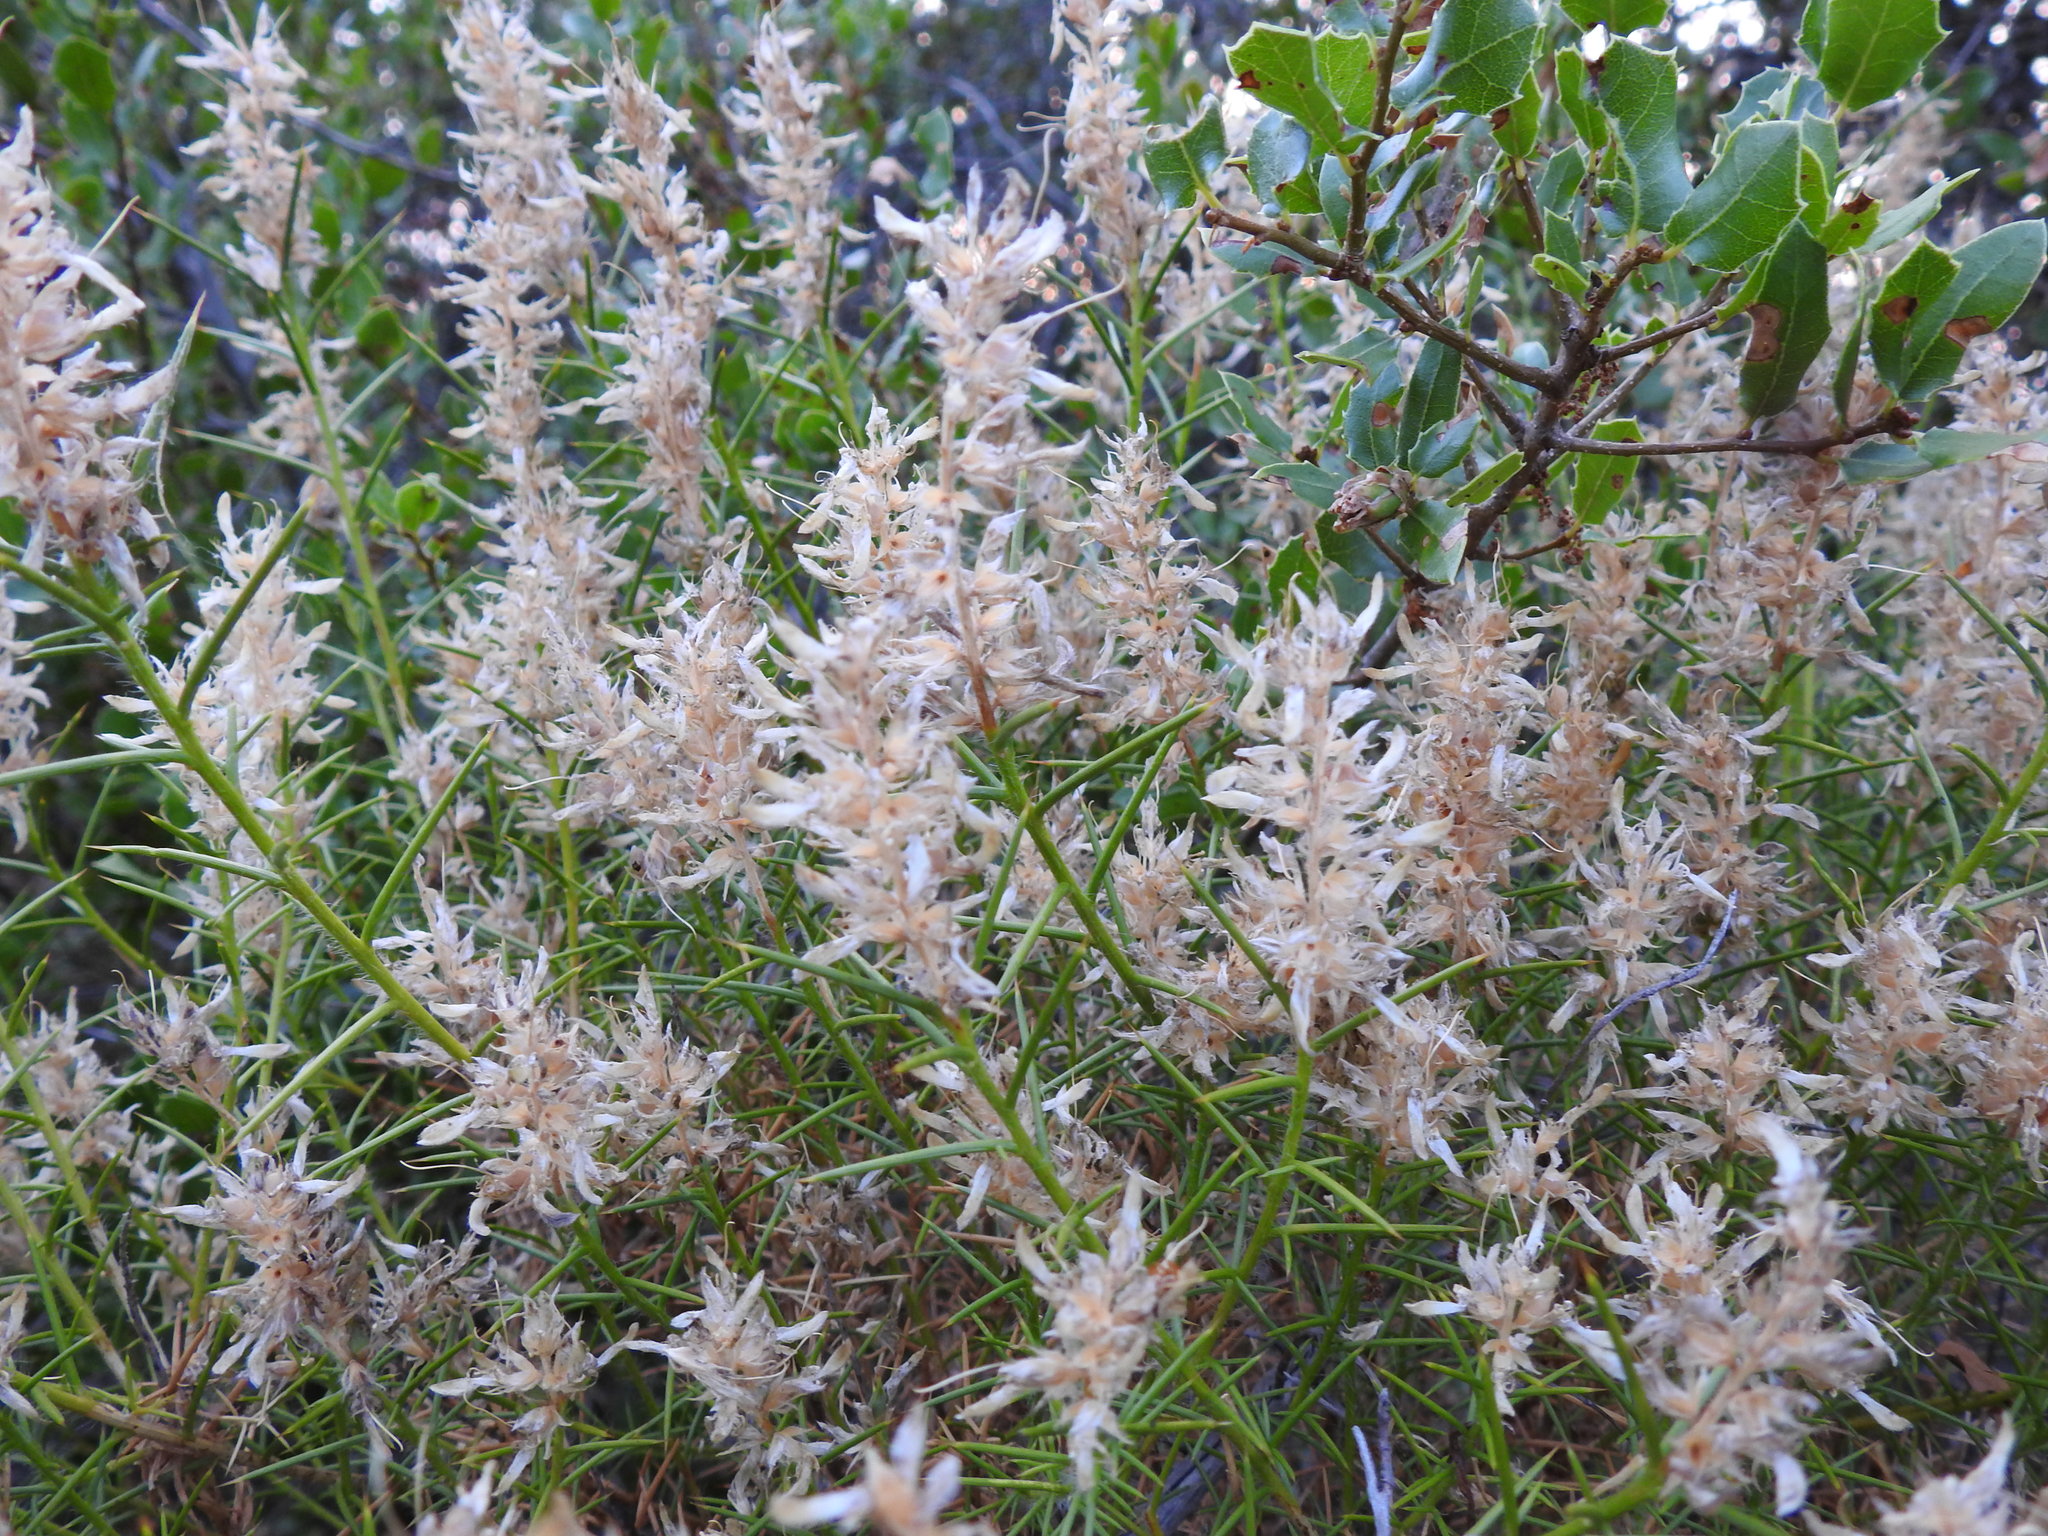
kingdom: Plantae
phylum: Tracheophyta
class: Magnoliopsida
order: Fabales
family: Fabaceae
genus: Genista
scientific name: Genista hirsuta
